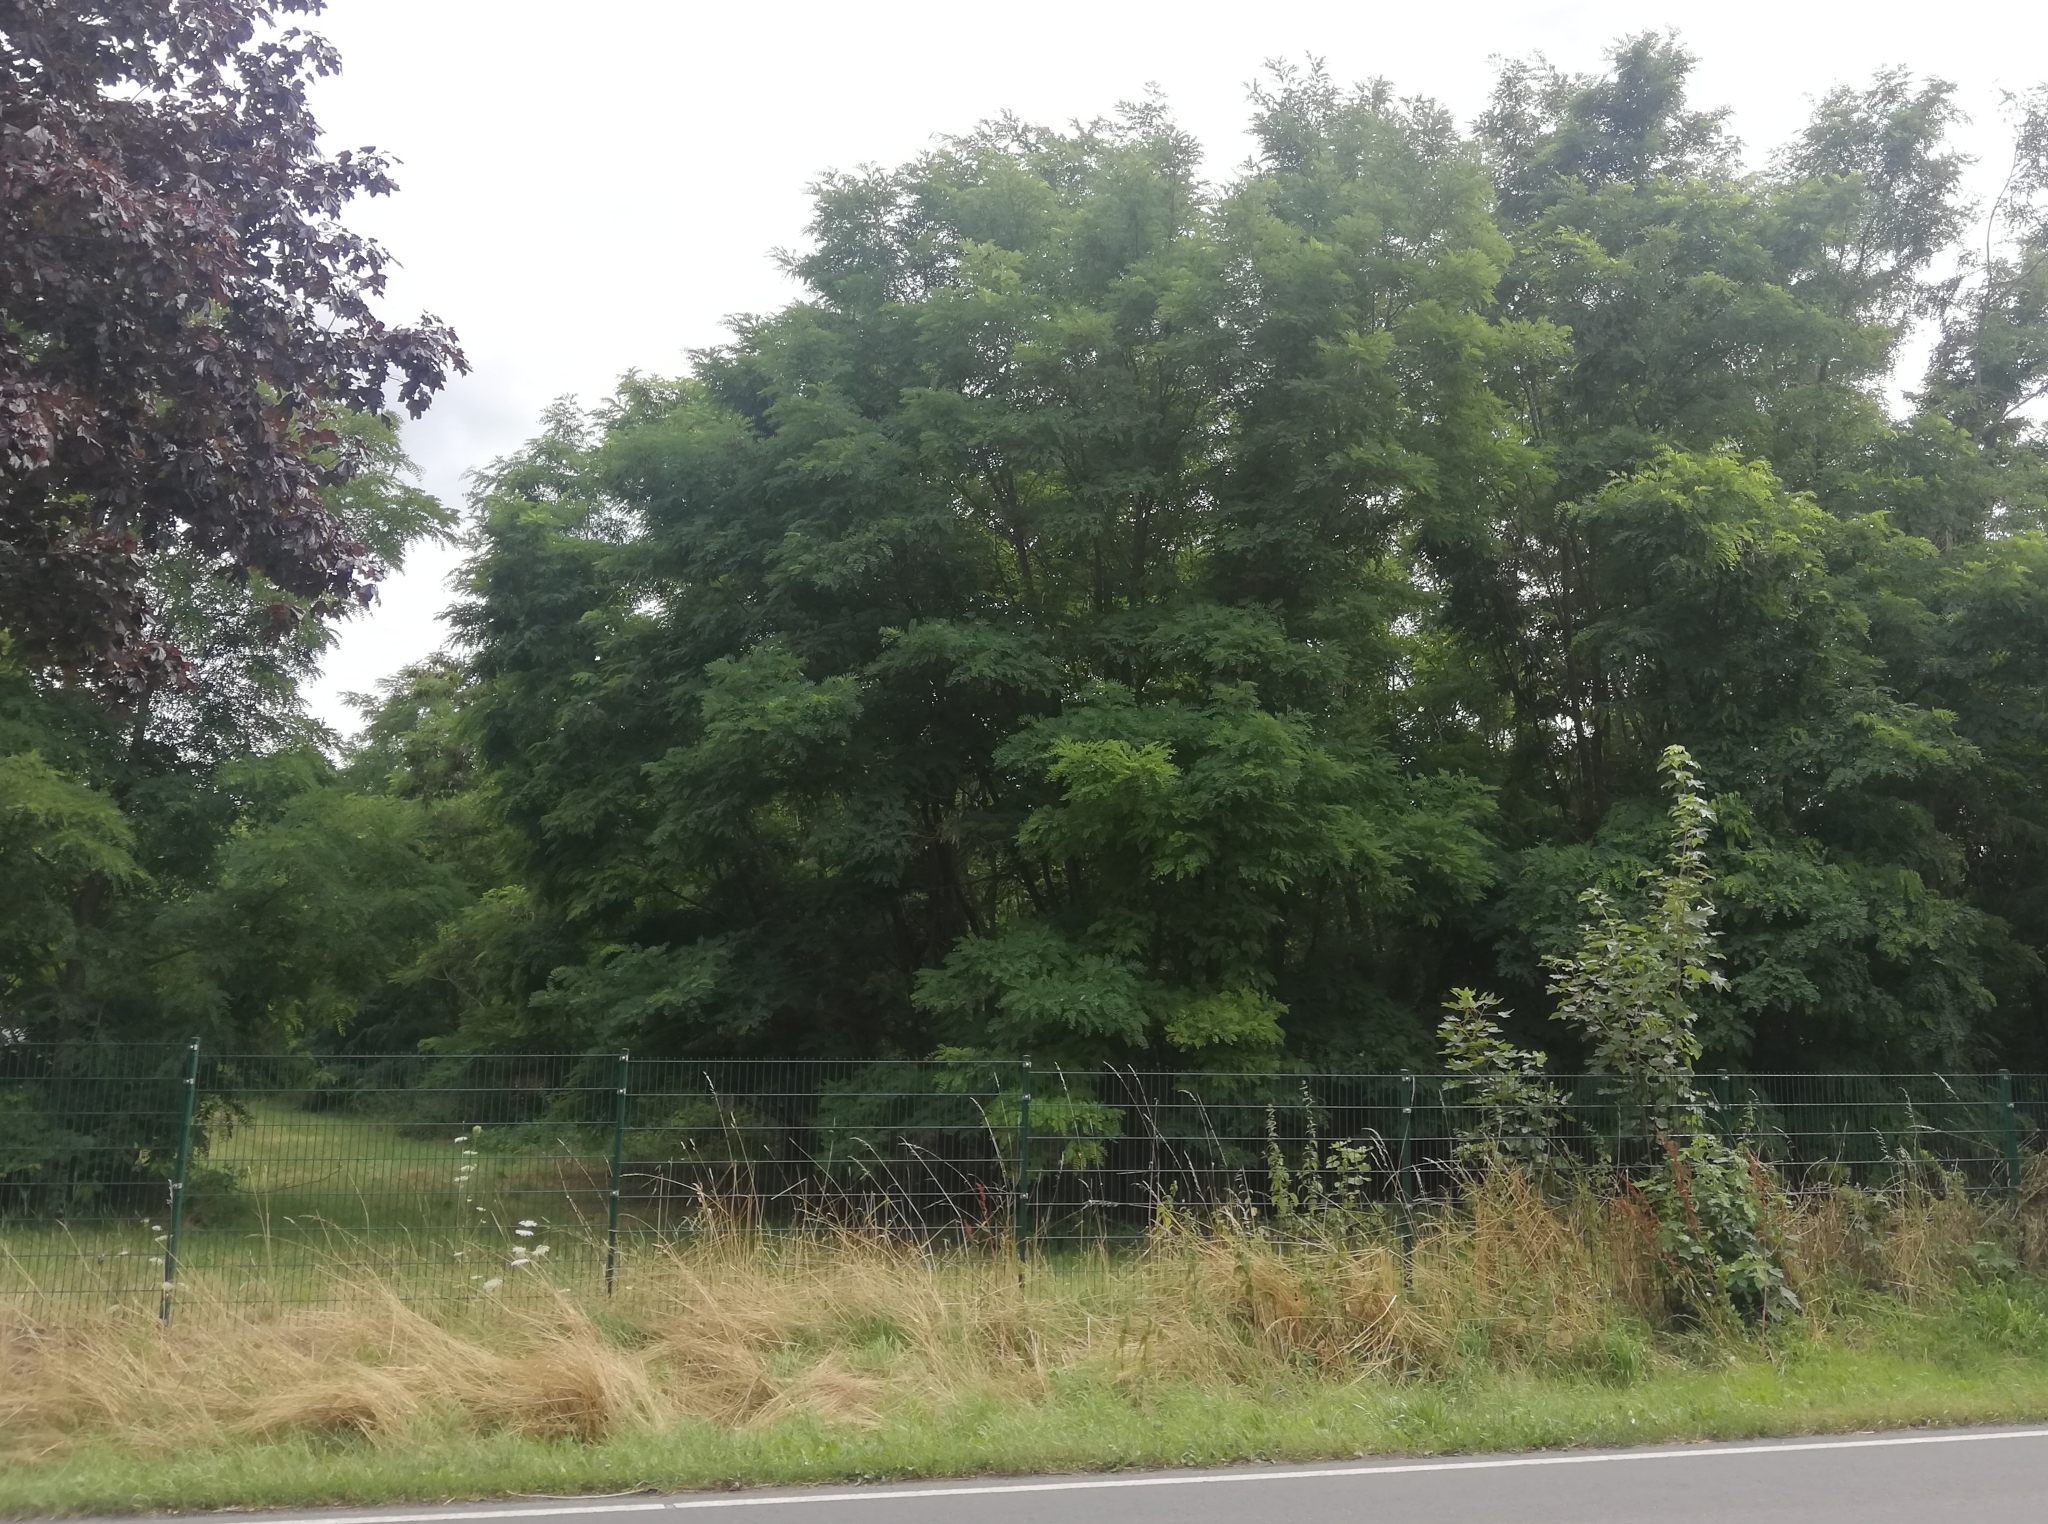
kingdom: Plantae
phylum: Tracheophyta
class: Magnoliopsida
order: Fabales
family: Fabaceae
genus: Robinia
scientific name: Robinia pseudoacacia
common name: Black locust
